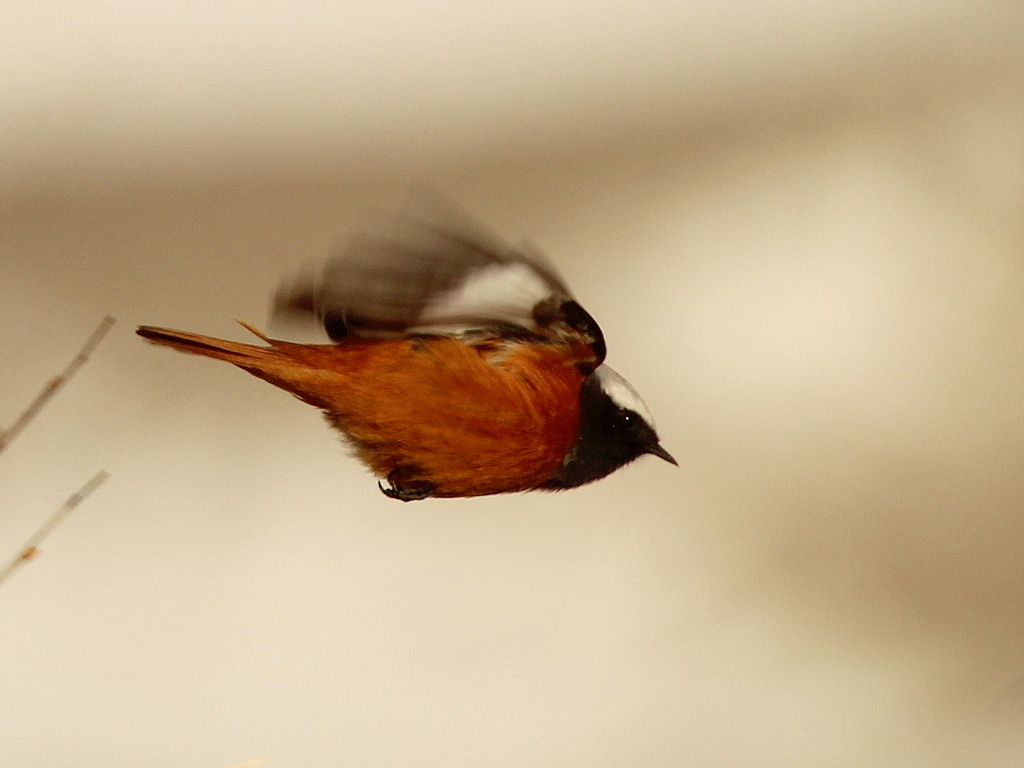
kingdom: Animalia
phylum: Chordata
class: Aves
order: Passeriformes
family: Muscicapidae
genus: Phoenicurus
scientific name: Phoenicurus erythrogastrus
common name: Güldenstädt's redstart
